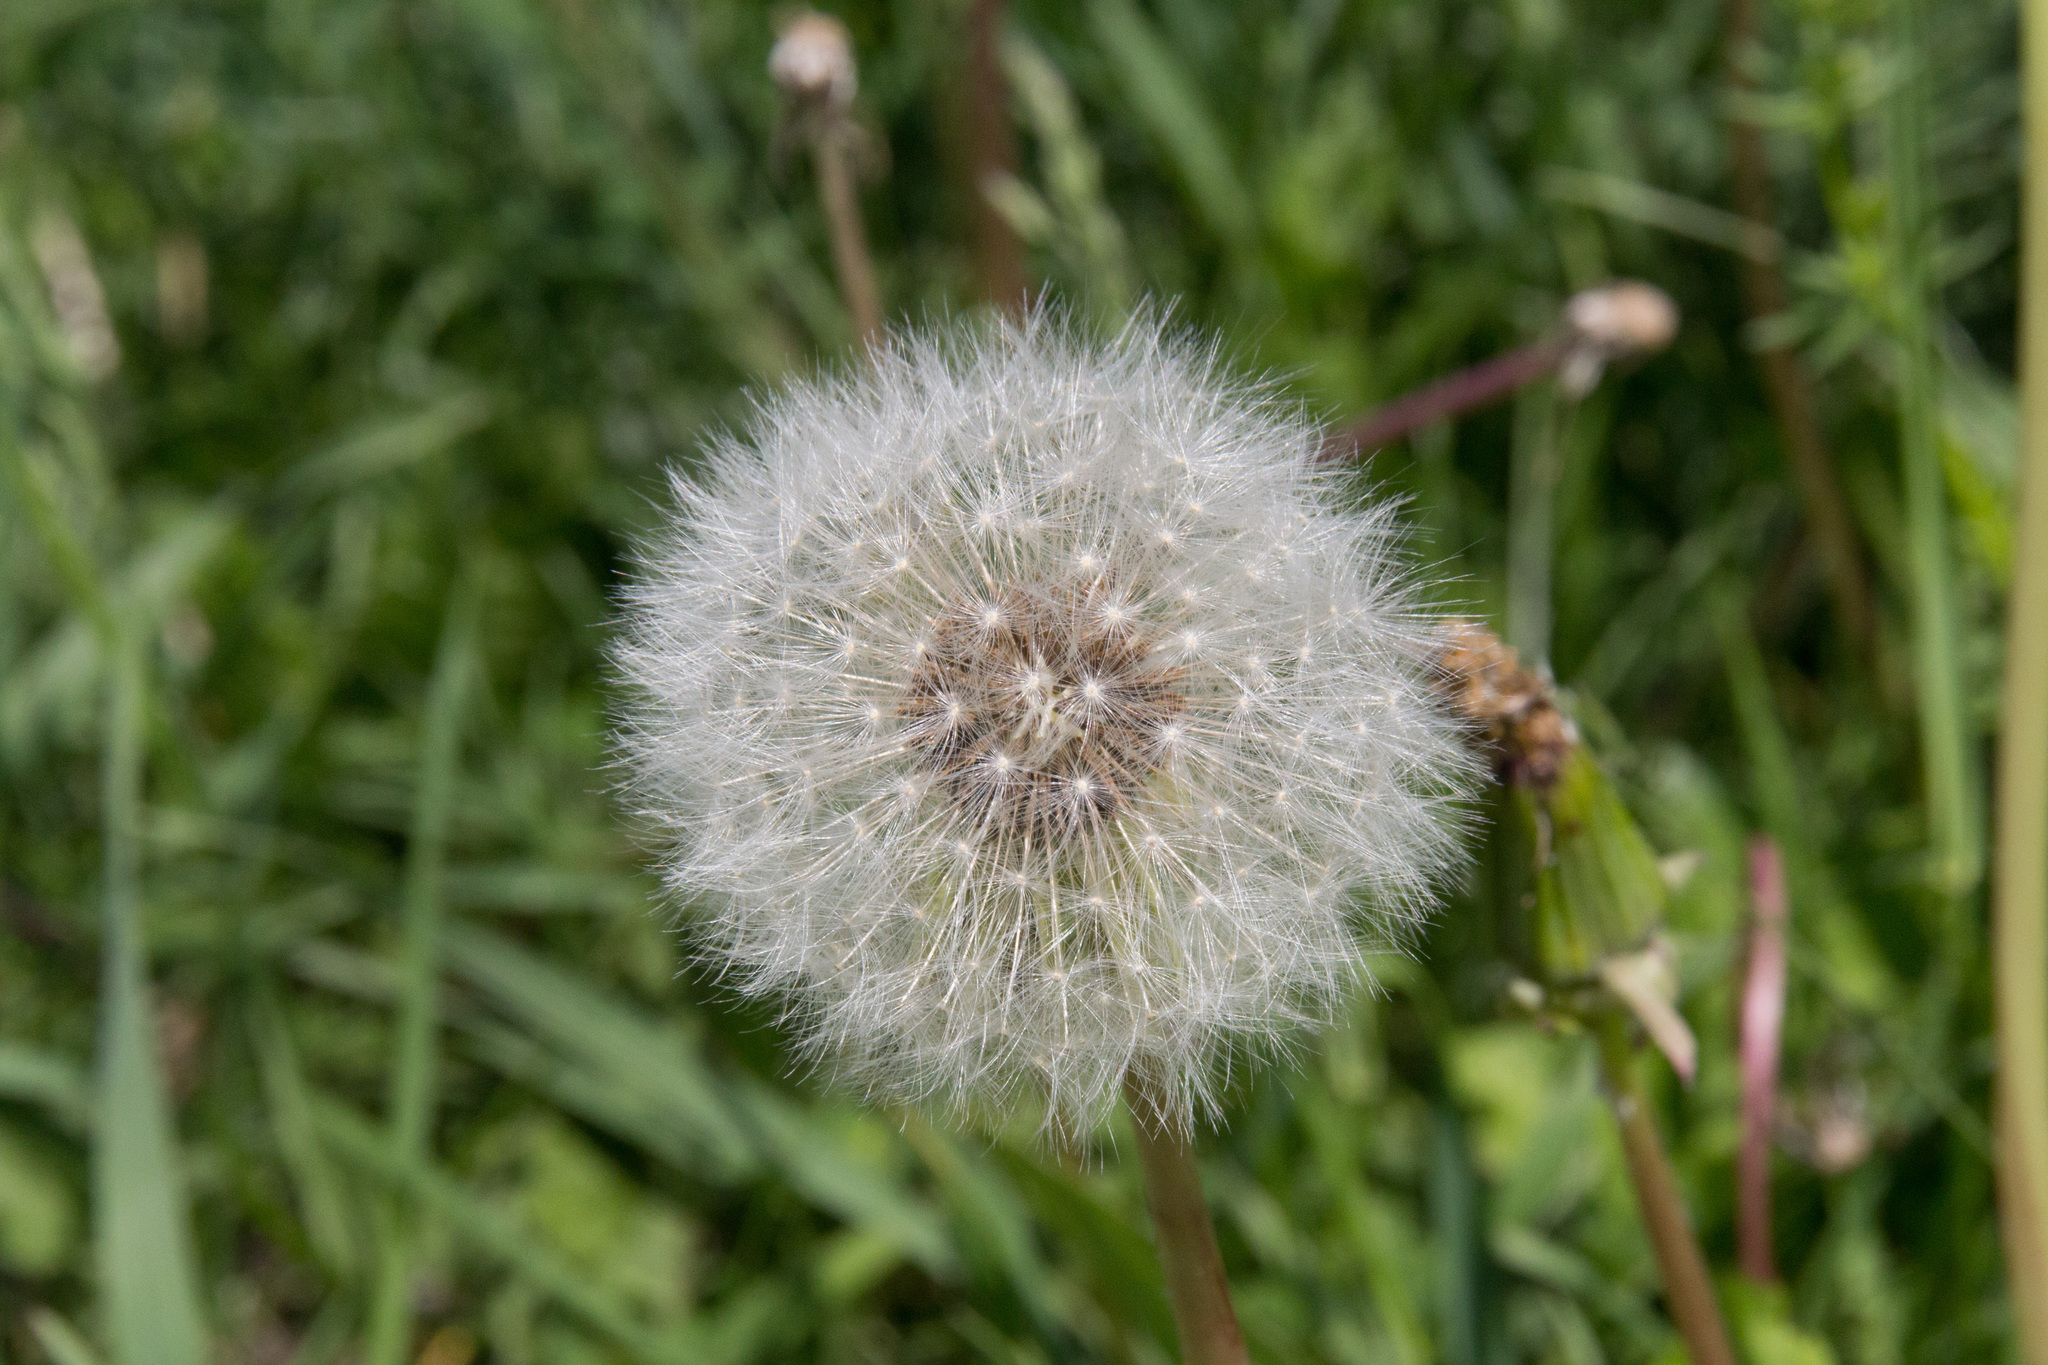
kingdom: Plantae
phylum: Tracheophyta
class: Magnoliopsida
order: Asterales
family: Asteraceae
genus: Taraxacum
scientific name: Taraxacum officinale
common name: Common dandelion
